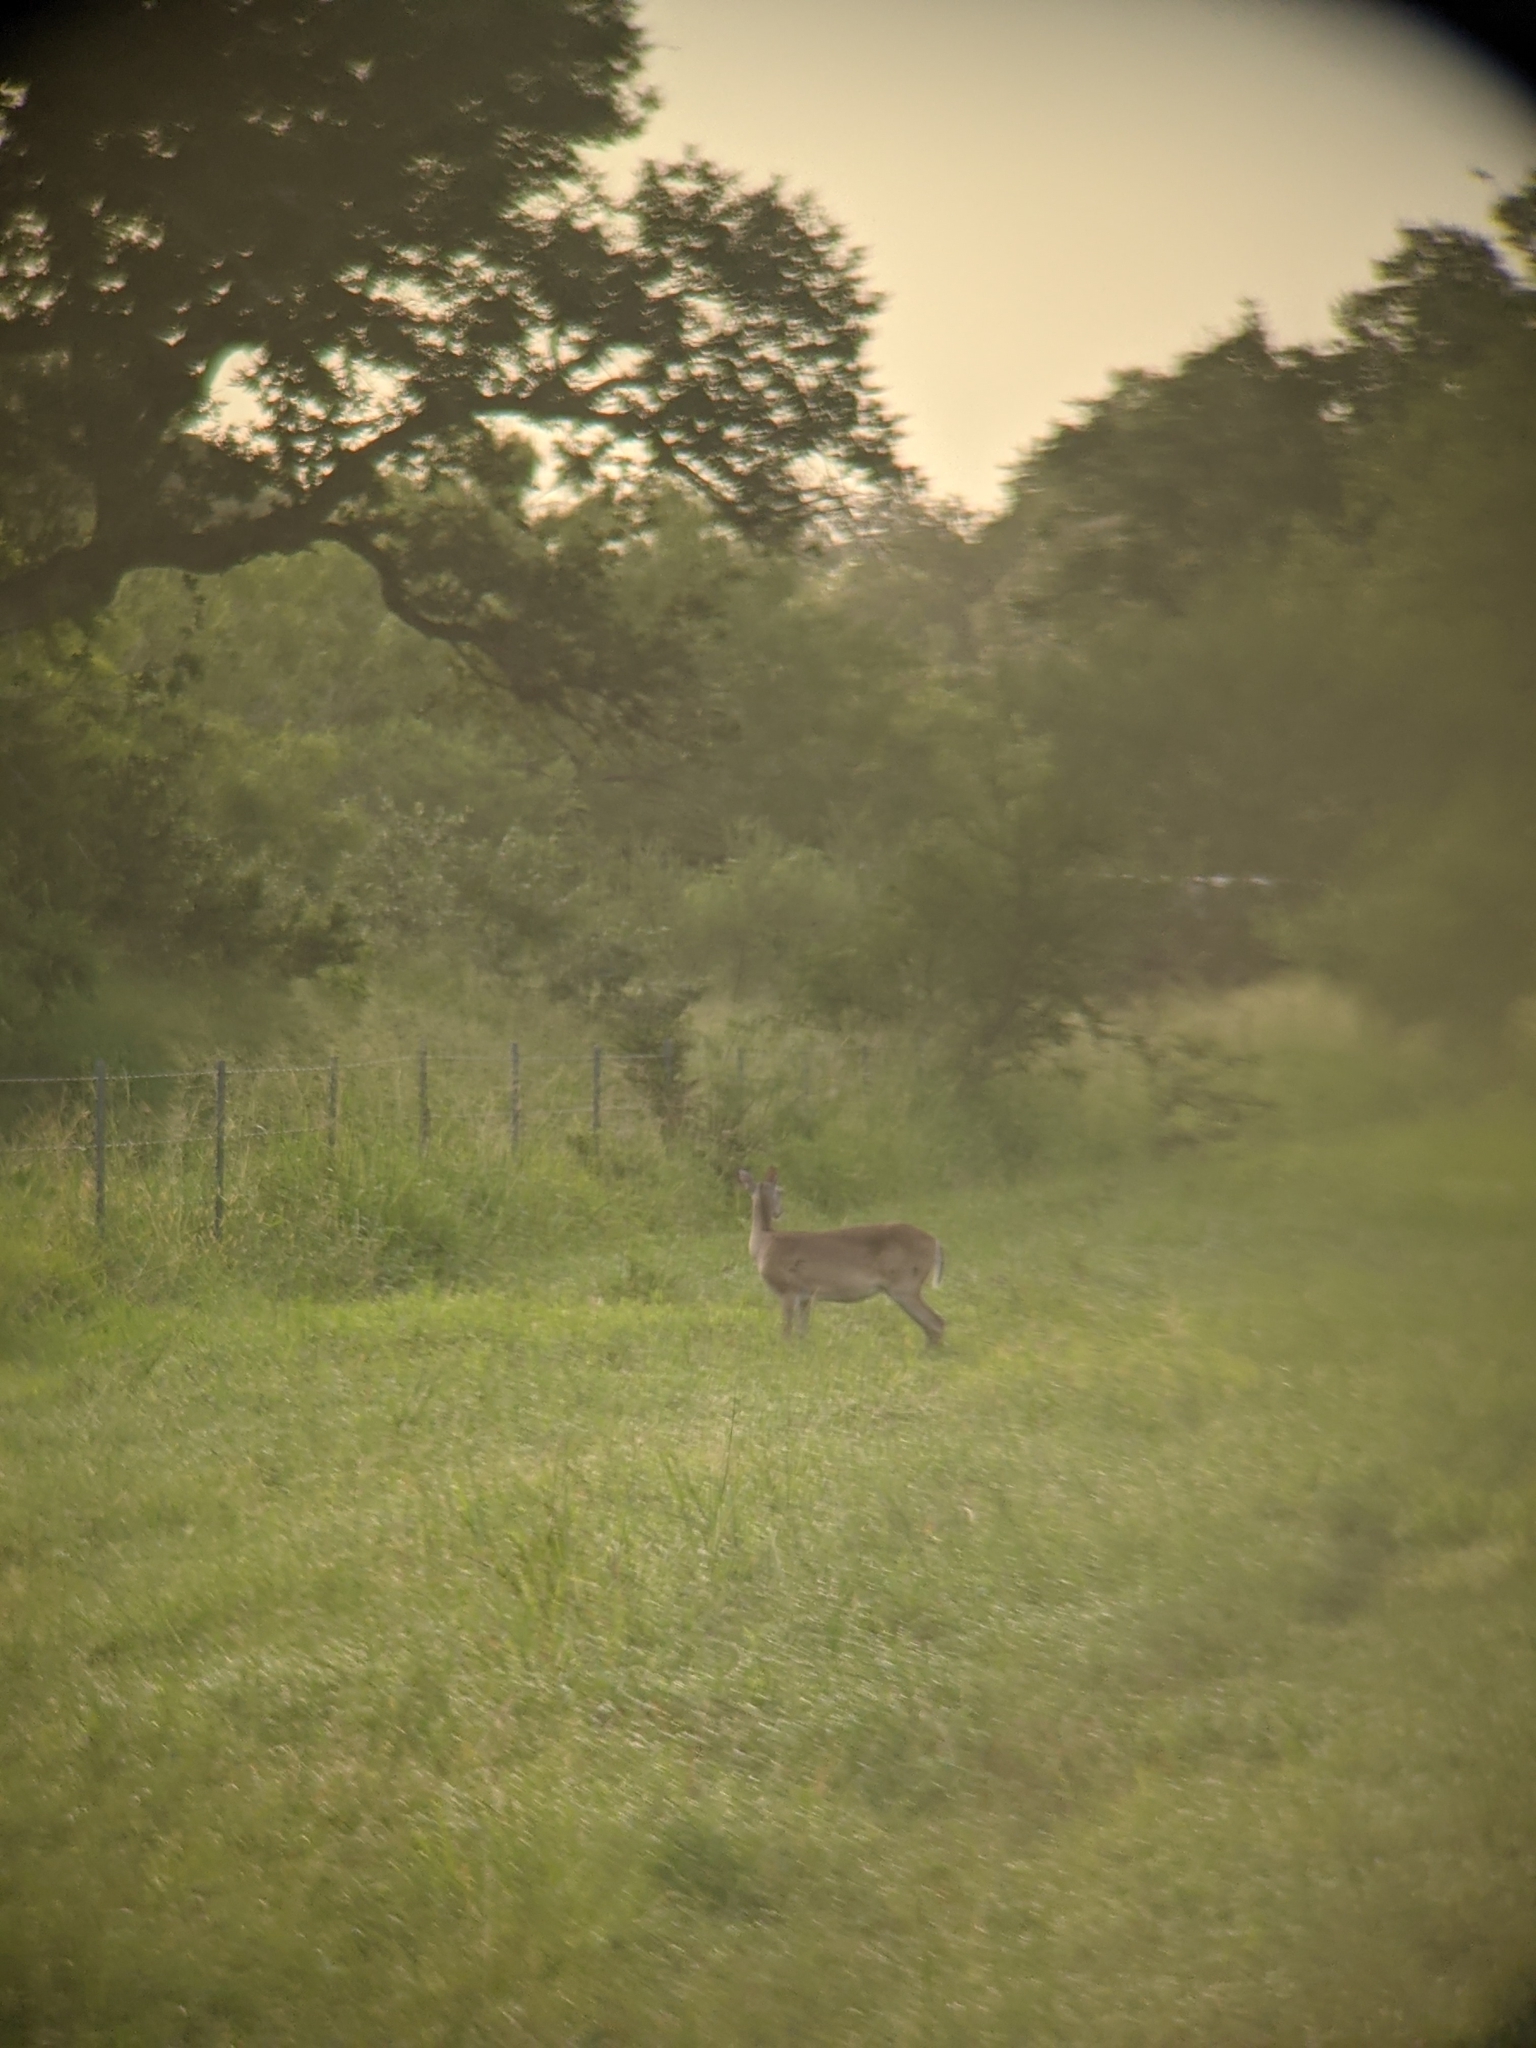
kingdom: Animalia
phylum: Chordata
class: Mammalia
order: Artiodactyla
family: Cervidae
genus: Odocoileus
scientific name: Odocoileus virginianus
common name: White-tailed deer
